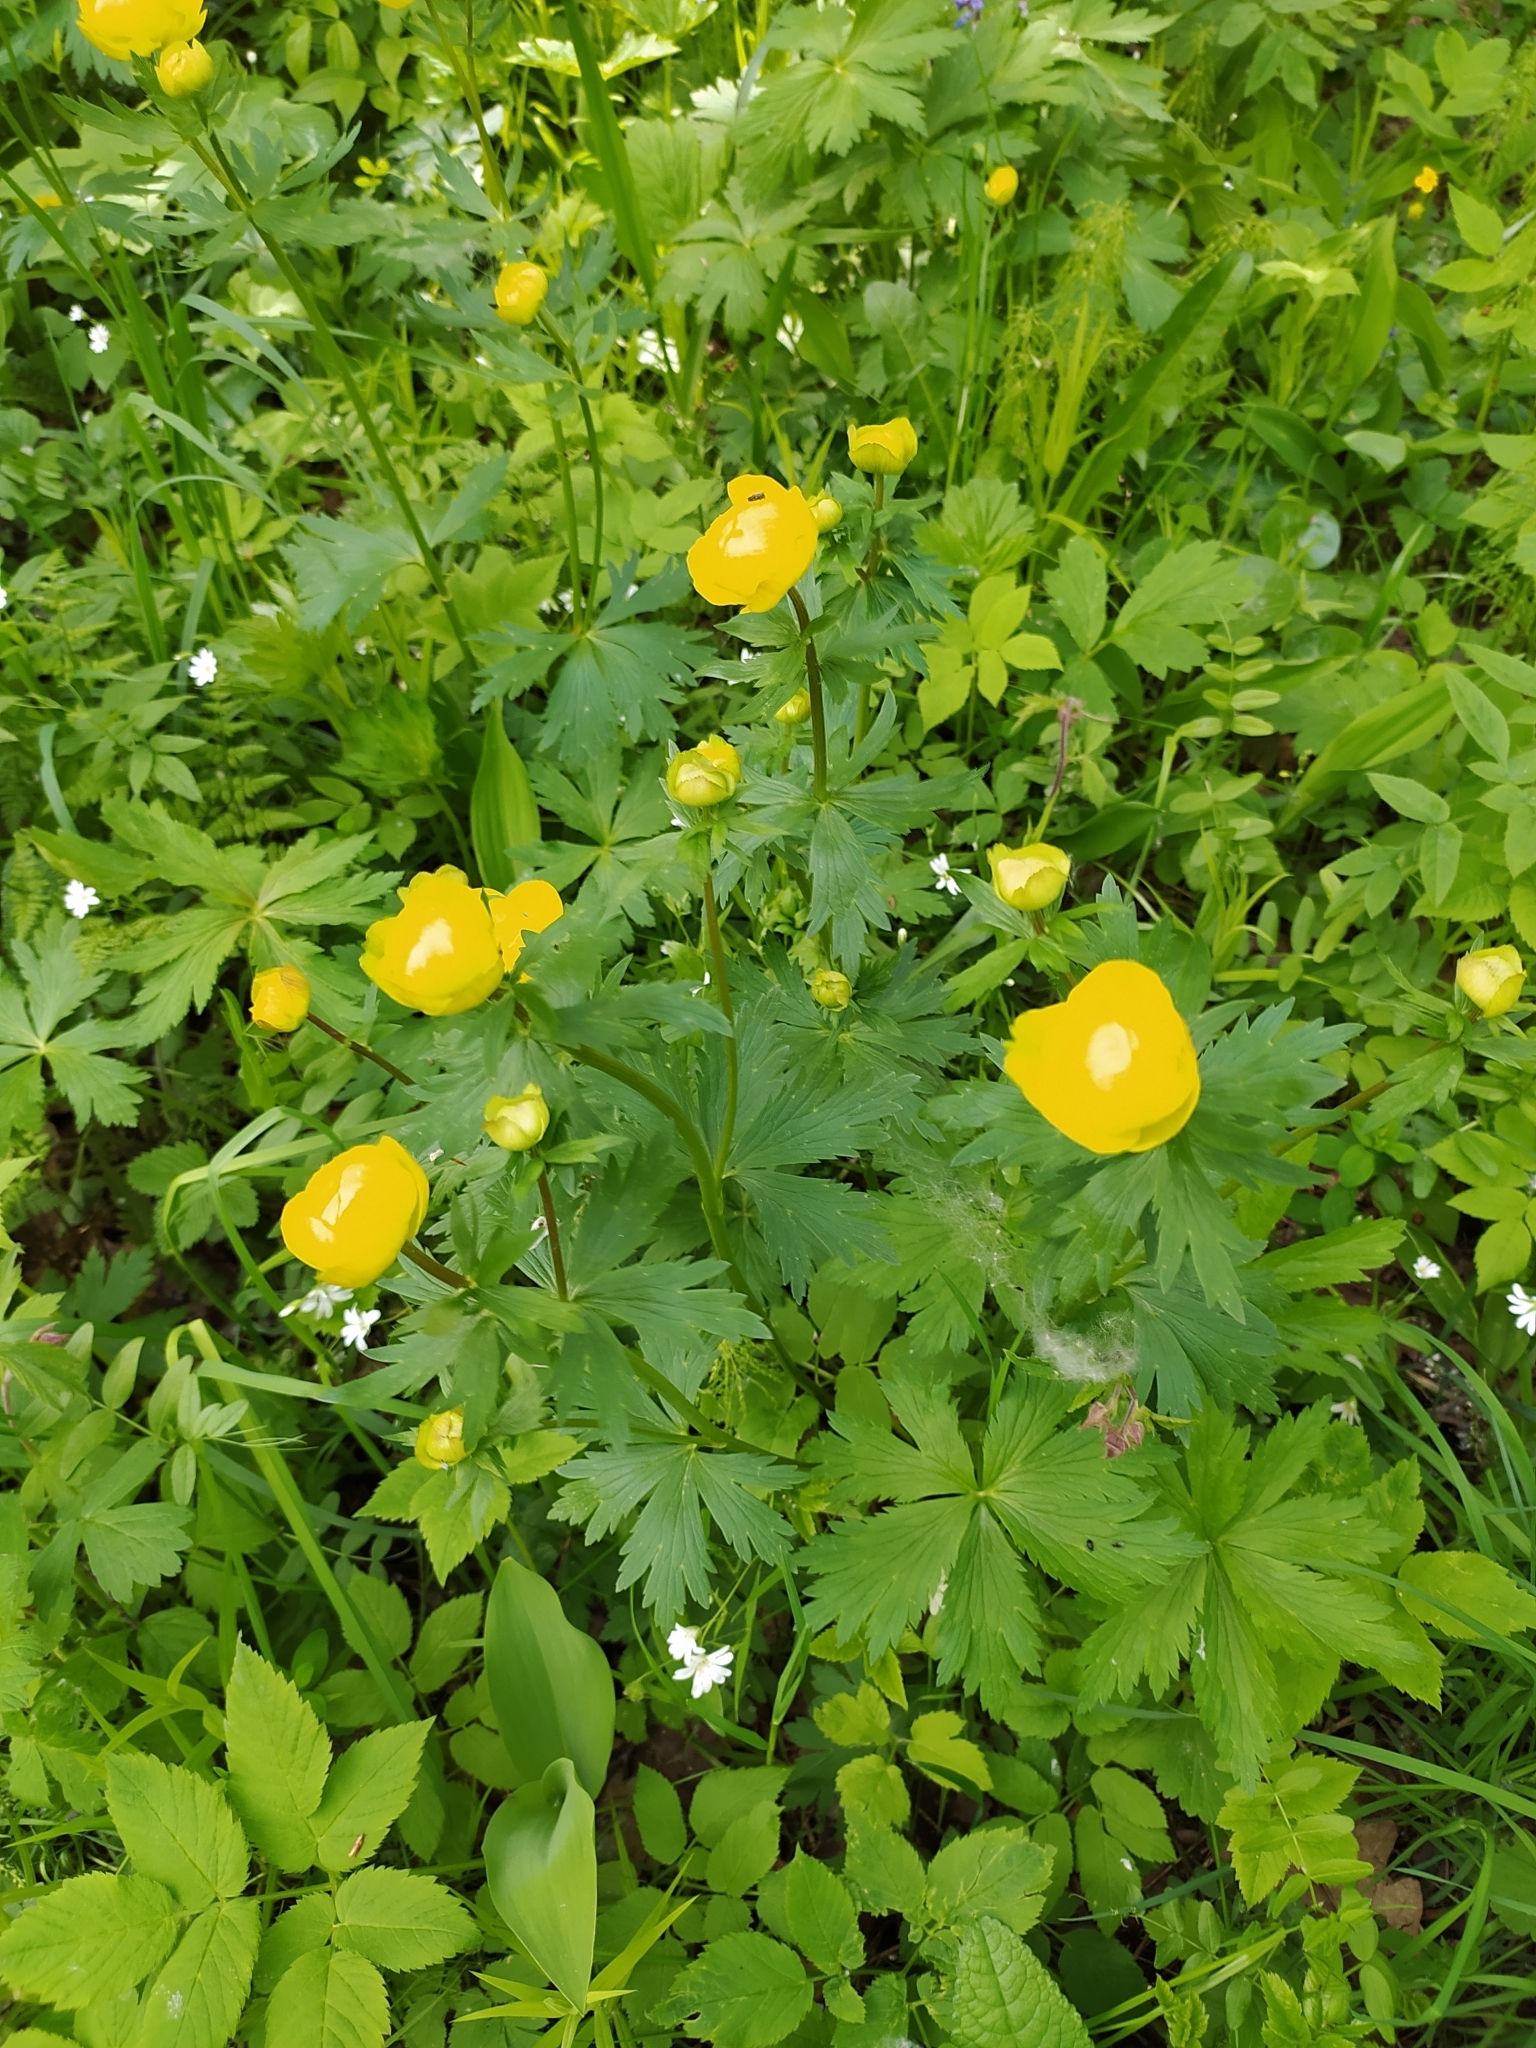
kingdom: Plantae
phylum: Tracheophyta
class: Magnoliopsida
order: Ranunculales
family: Ranunculaceae
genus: Trollius
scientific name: Trollius europaeus
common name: European globeflower
